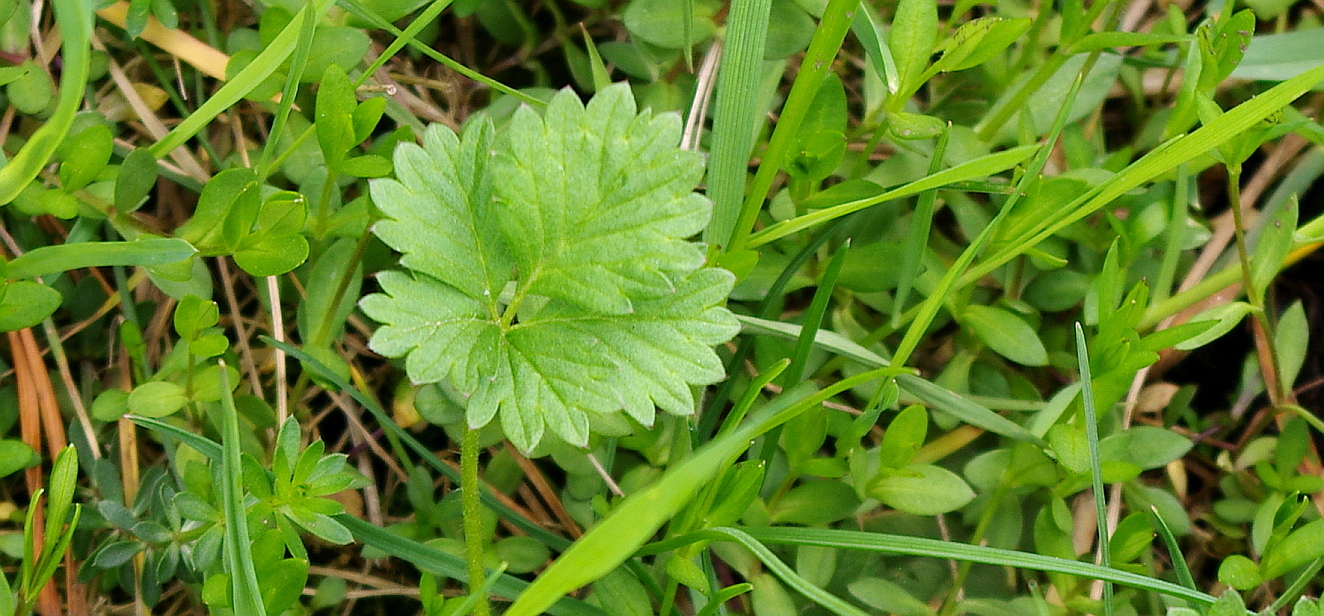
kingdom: Plantae
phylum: Tracheophyta
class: Magnoliopsida
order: Rosales
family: Rosaceae
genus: Potentilla
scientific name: Potentilla intermedia
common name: Downy cinquefoil
